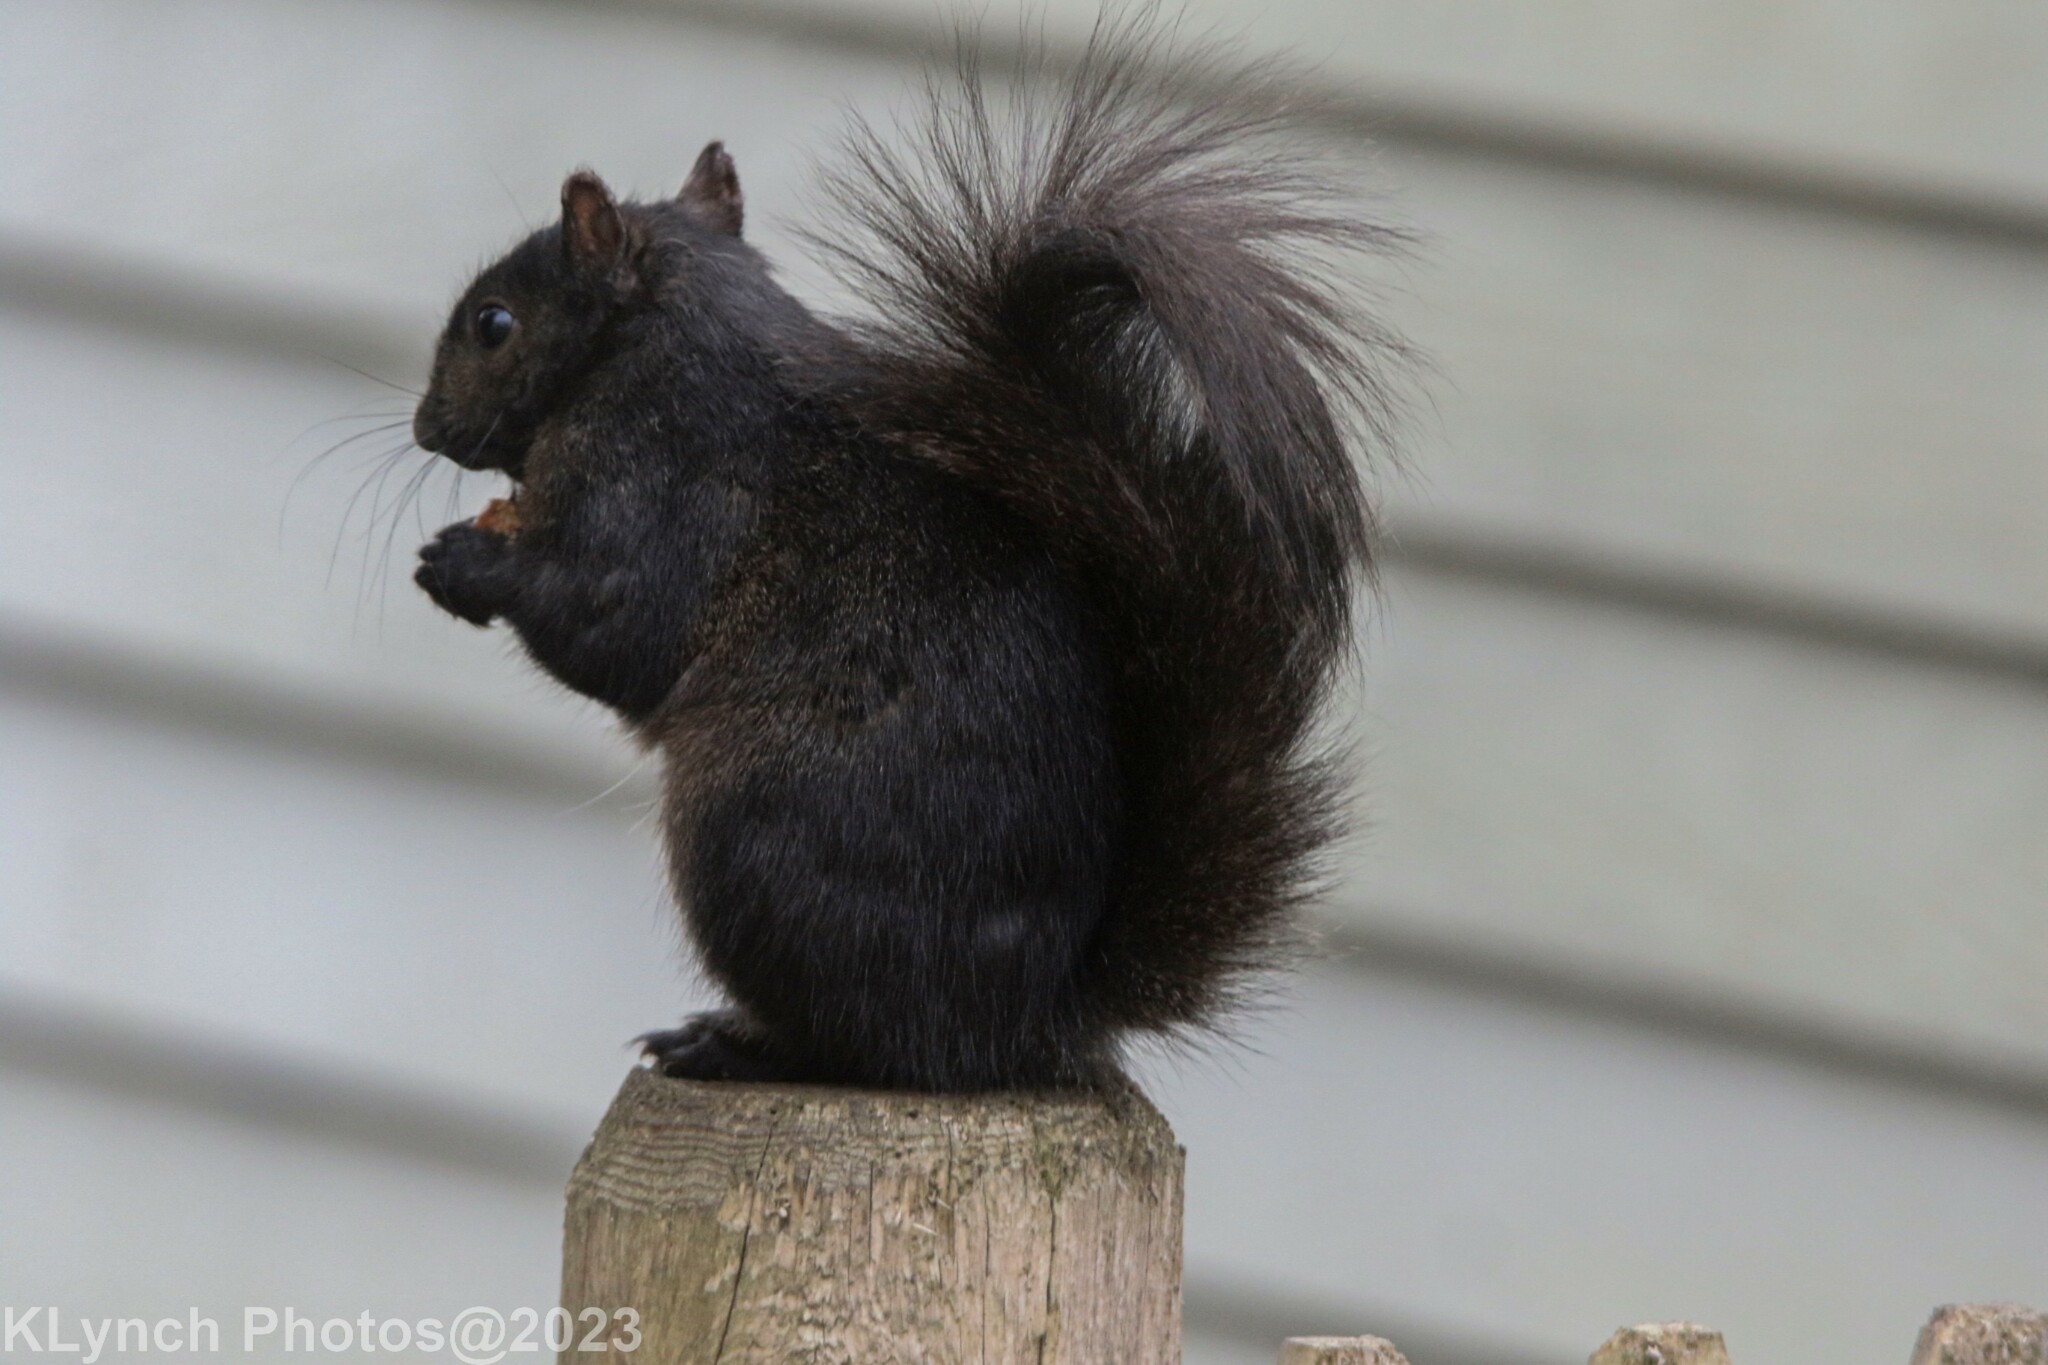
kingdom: Animalia
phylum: Chordata
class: Mammalia
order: Rodentia
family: Sciuridae
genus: Sciurus
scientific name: Sciurus carolinensis
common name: Eastern gray squirrel
